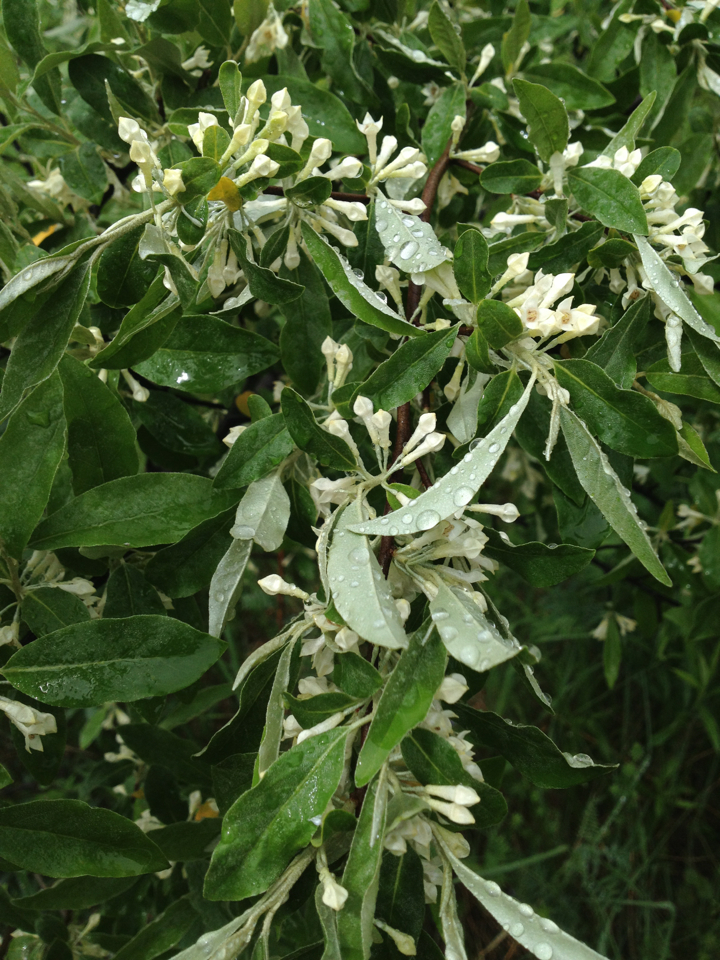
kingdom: Plantae
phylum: Tracheophyta
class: Magnoliopsida
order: Rosales
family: Elaeagnaceae
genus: Elaeagnus
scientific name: Elaeagnus umbellata
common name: Autumn olive
